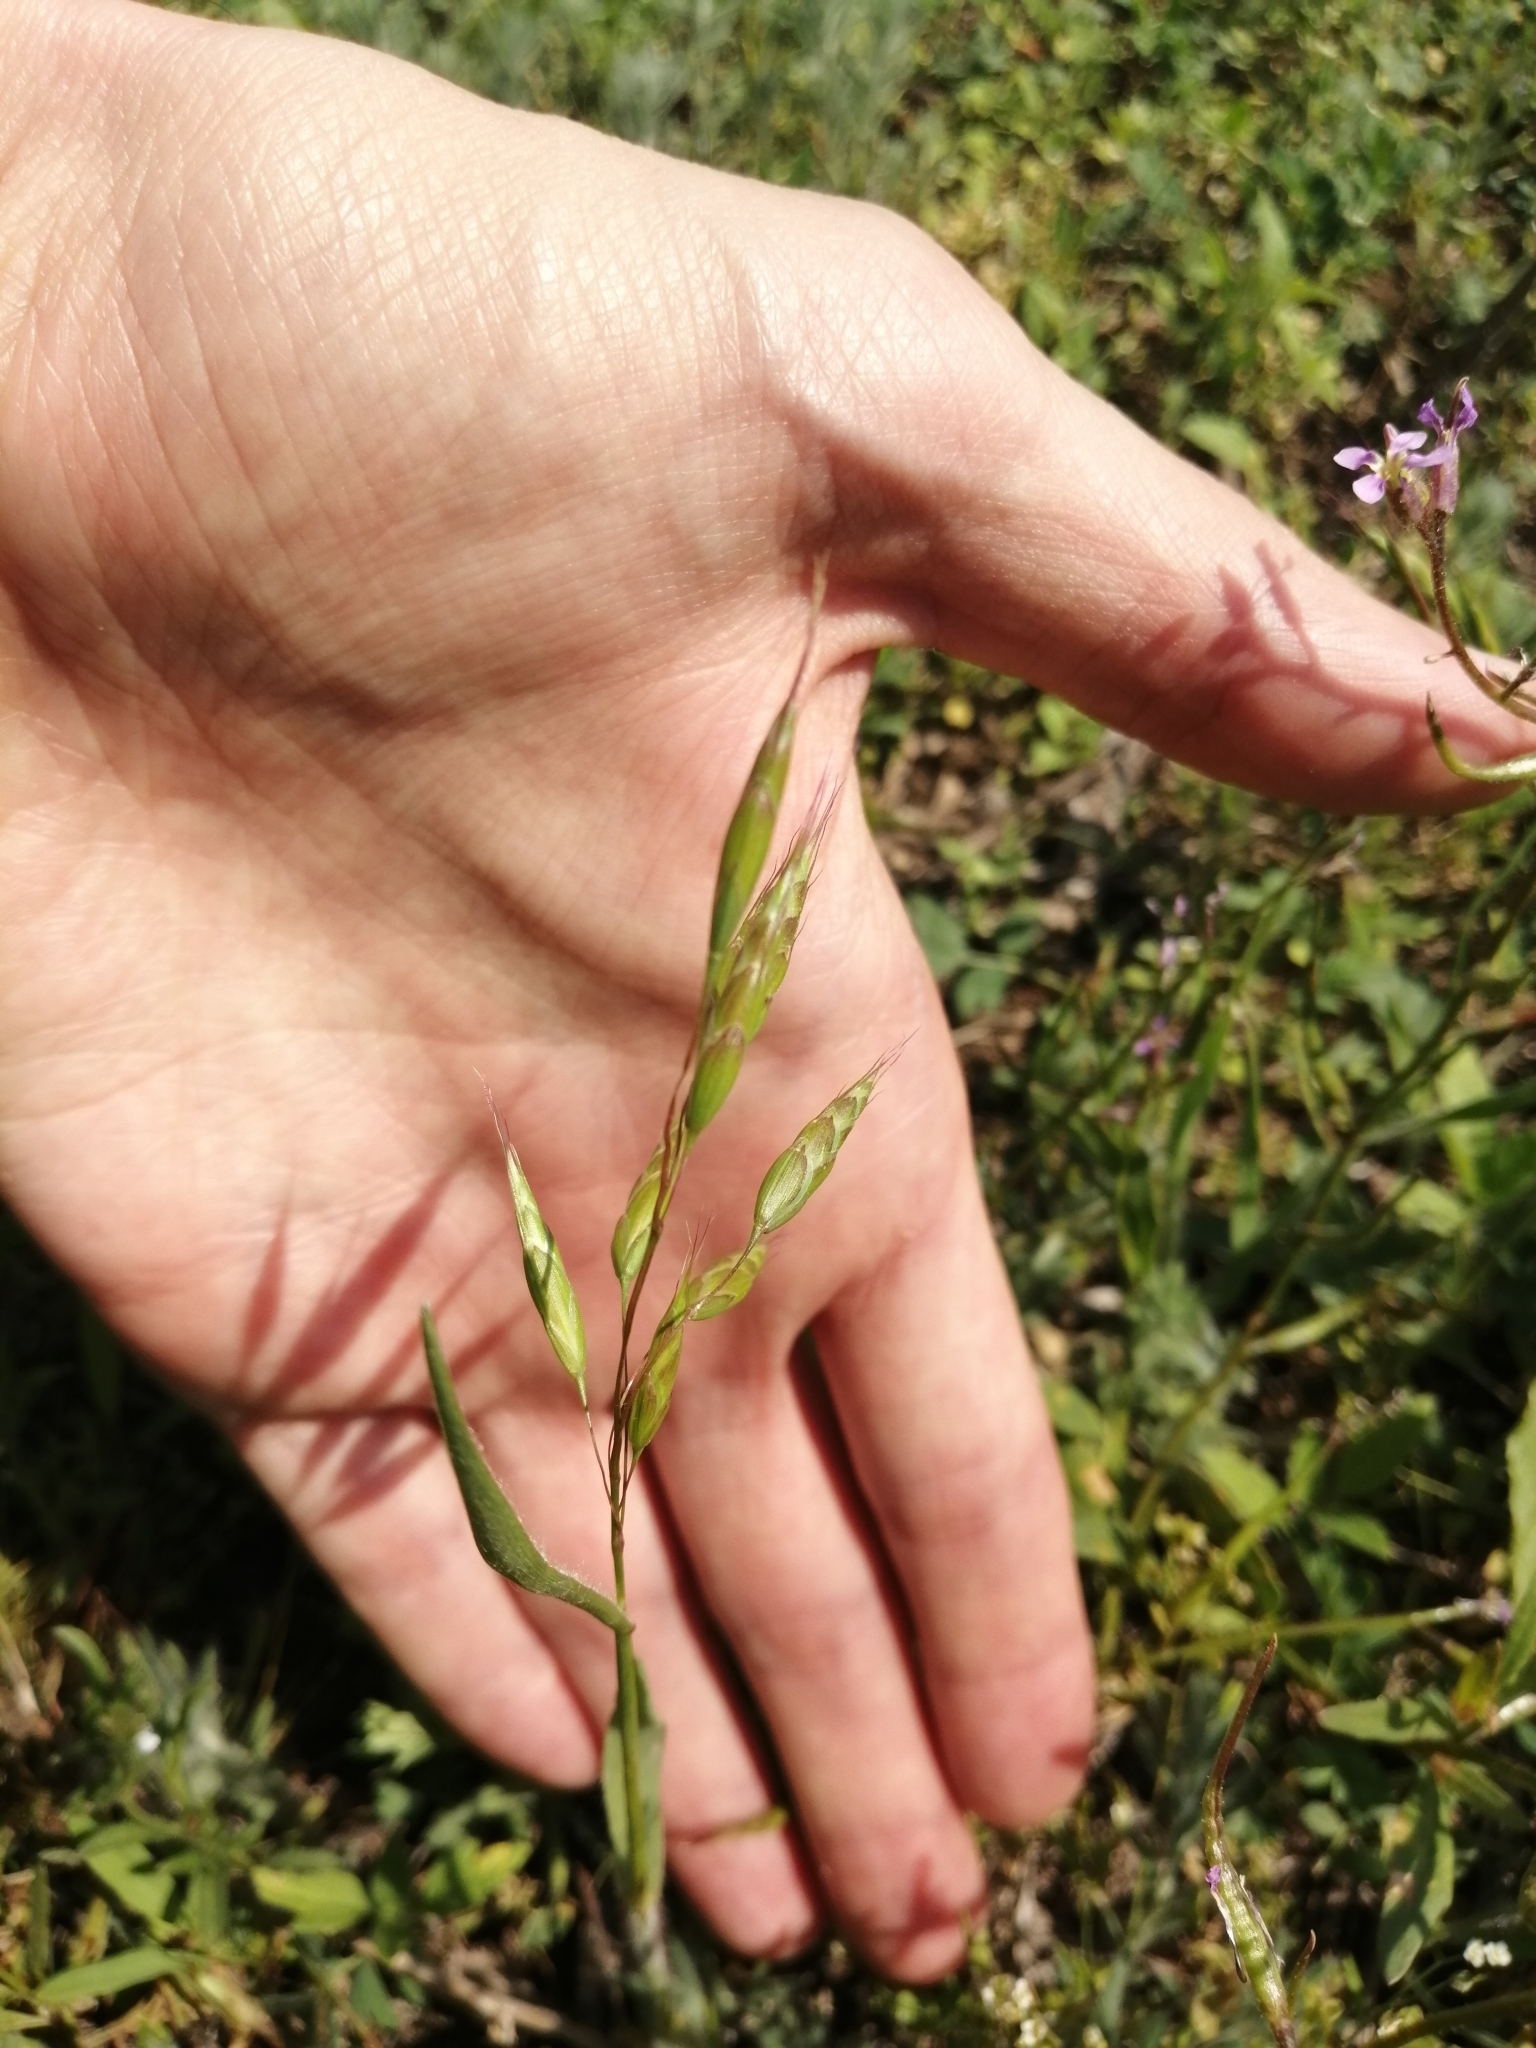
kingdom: Plantae
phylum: Tracheophyta
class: Liliopsida
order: Poales
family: Poaceae
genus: Bromus
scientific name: Bromus squarrosus
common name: Corn brome
